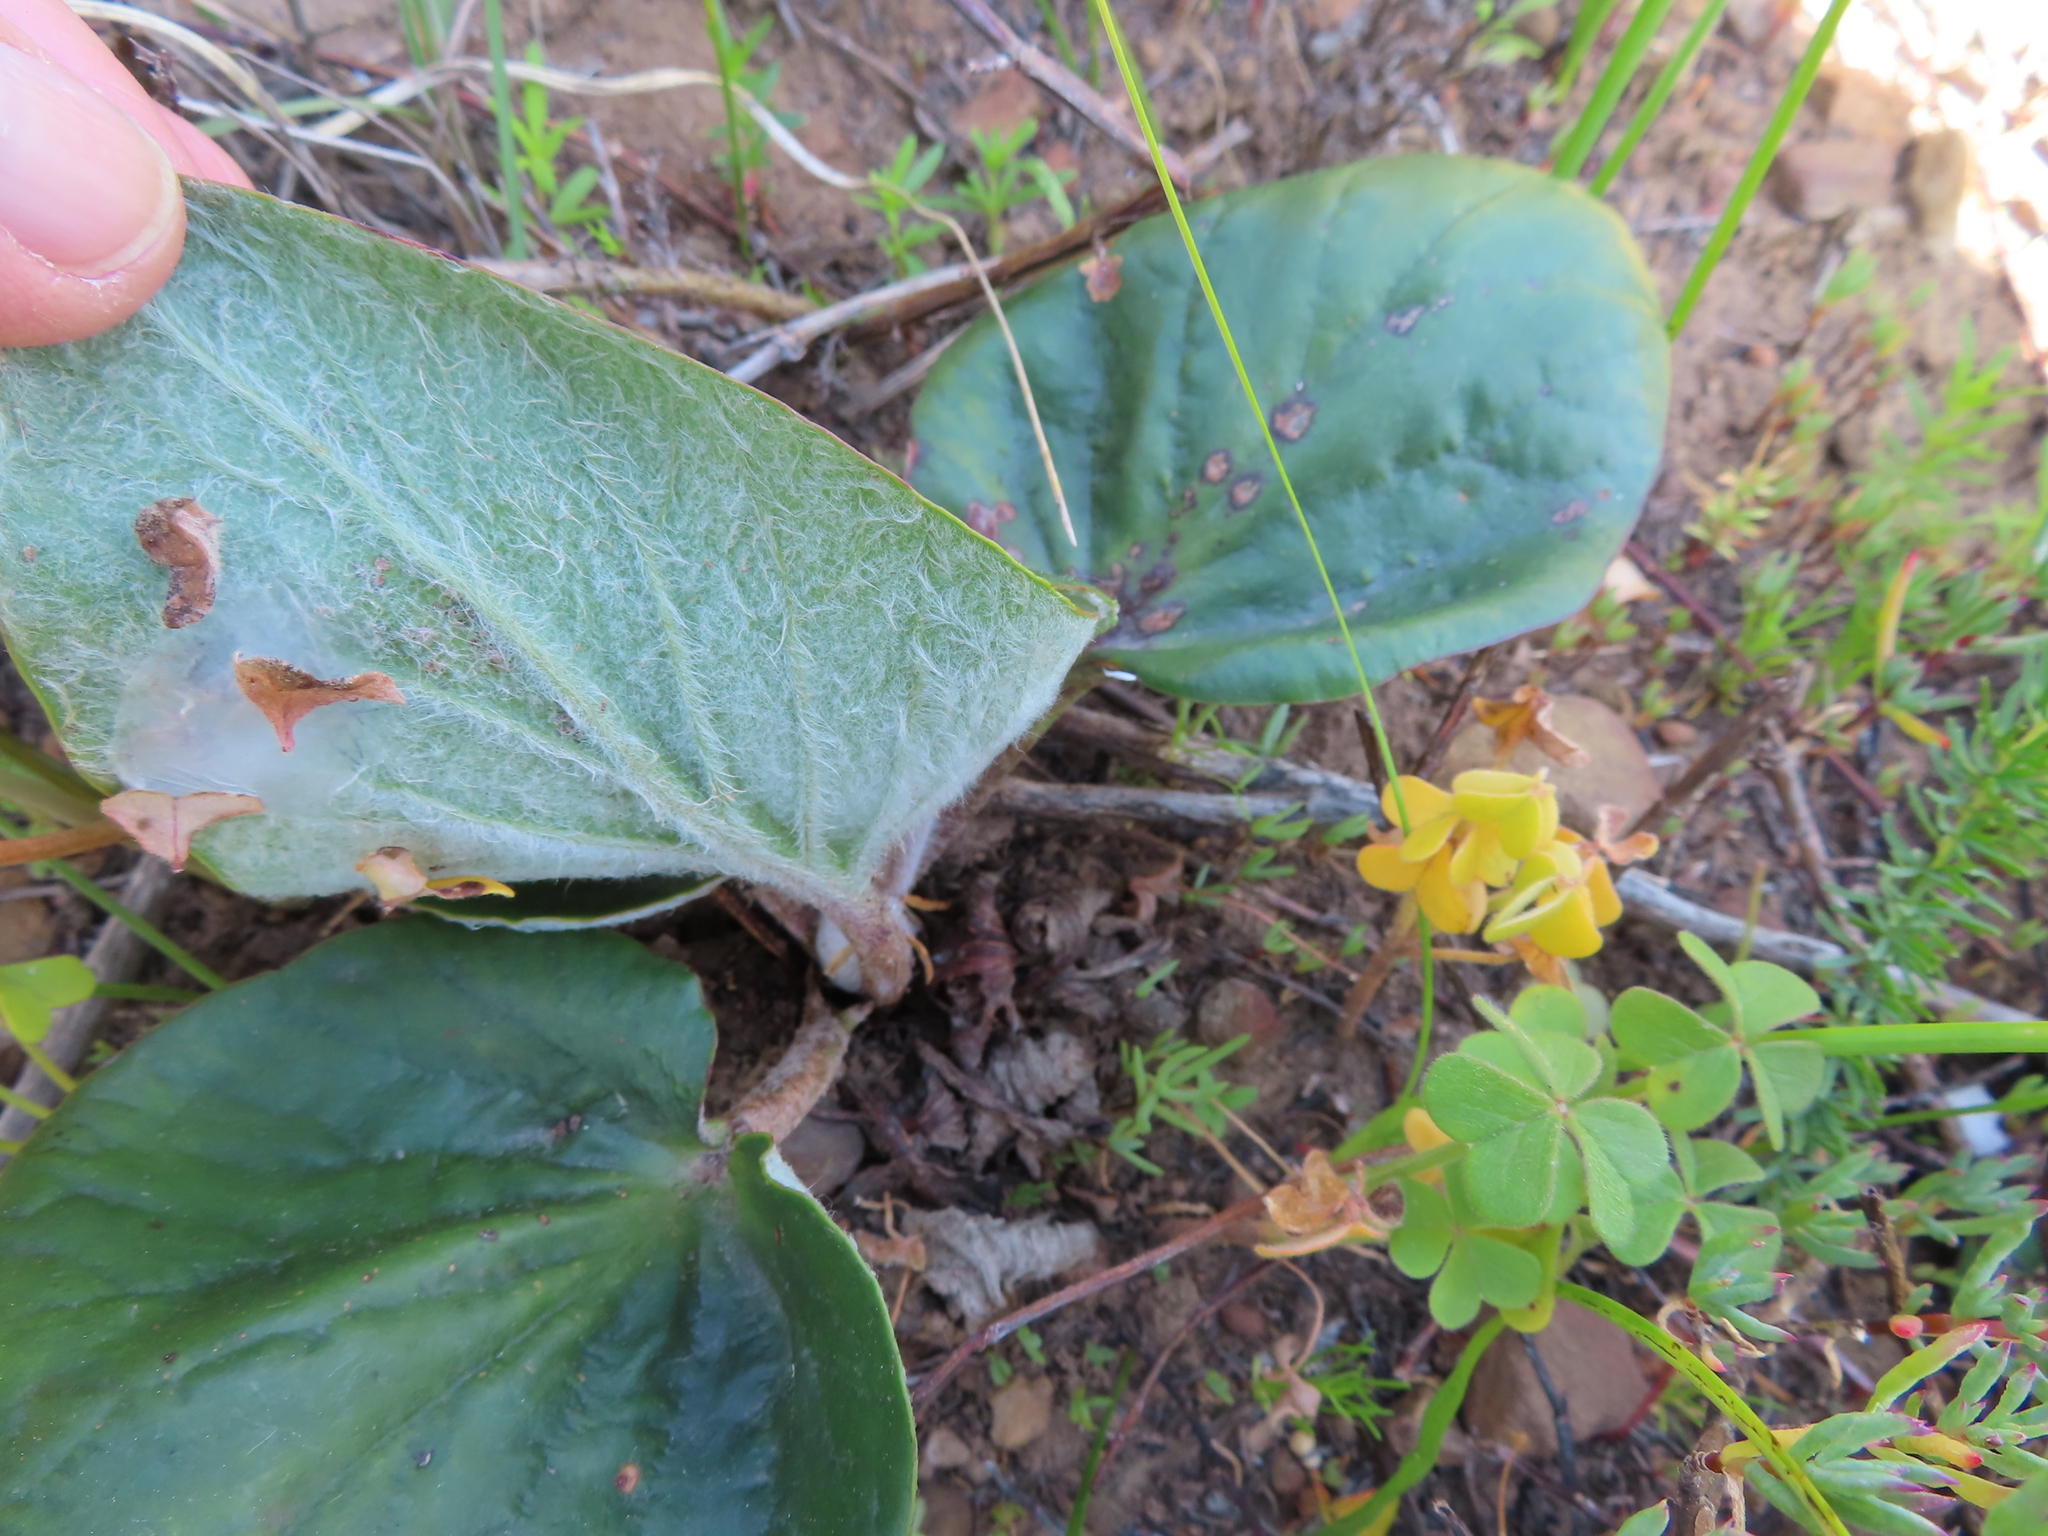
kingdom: Plantae
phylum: Tracheophyta
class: Magnoliopsida
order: Geraniales
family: Geraniaceae
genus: Pelargonium
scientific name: Pelargonium asarifolium
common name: Asarum-leaf pelargonium
